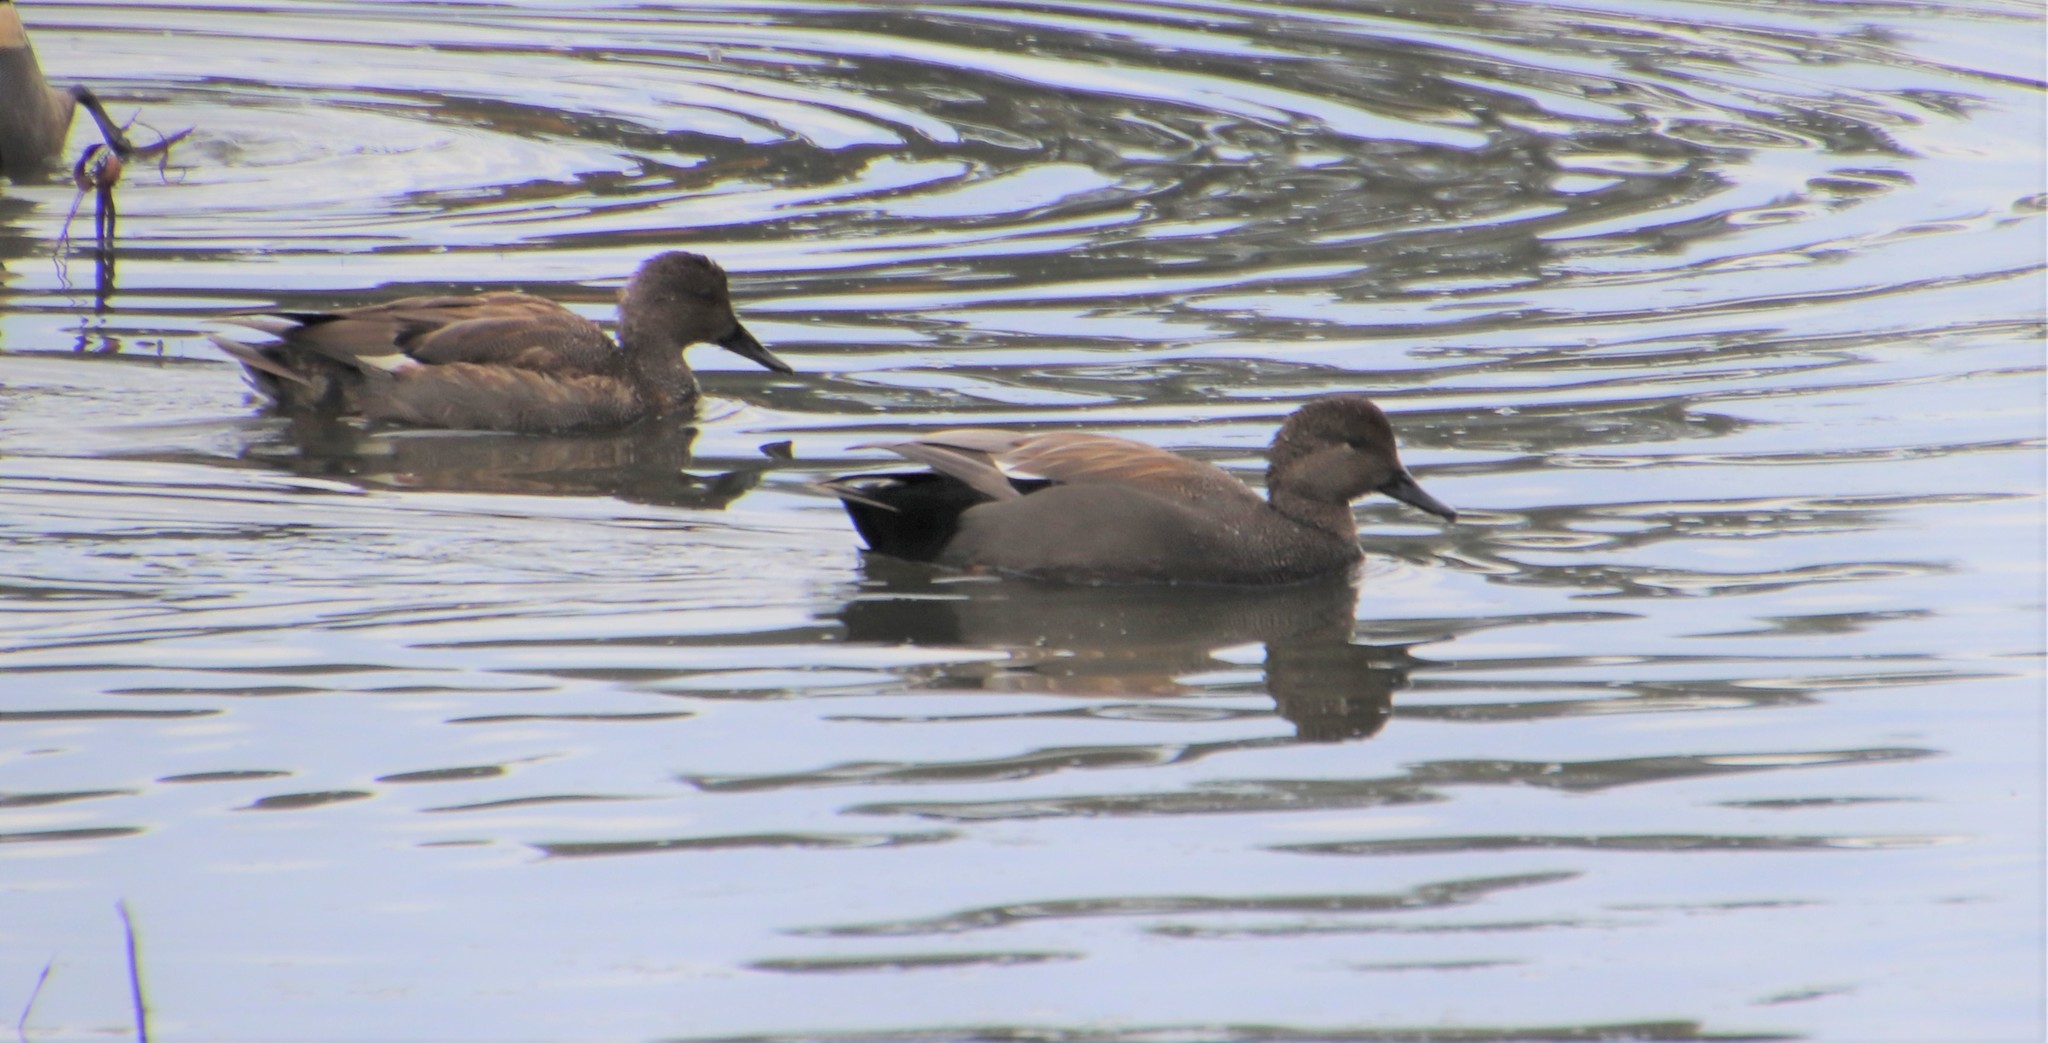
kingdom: Animalia
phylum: Chordata
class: Aves
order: Anseriformes
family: Anatidae
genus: Mareca
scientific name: Mareca strepera
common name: Gadwall
